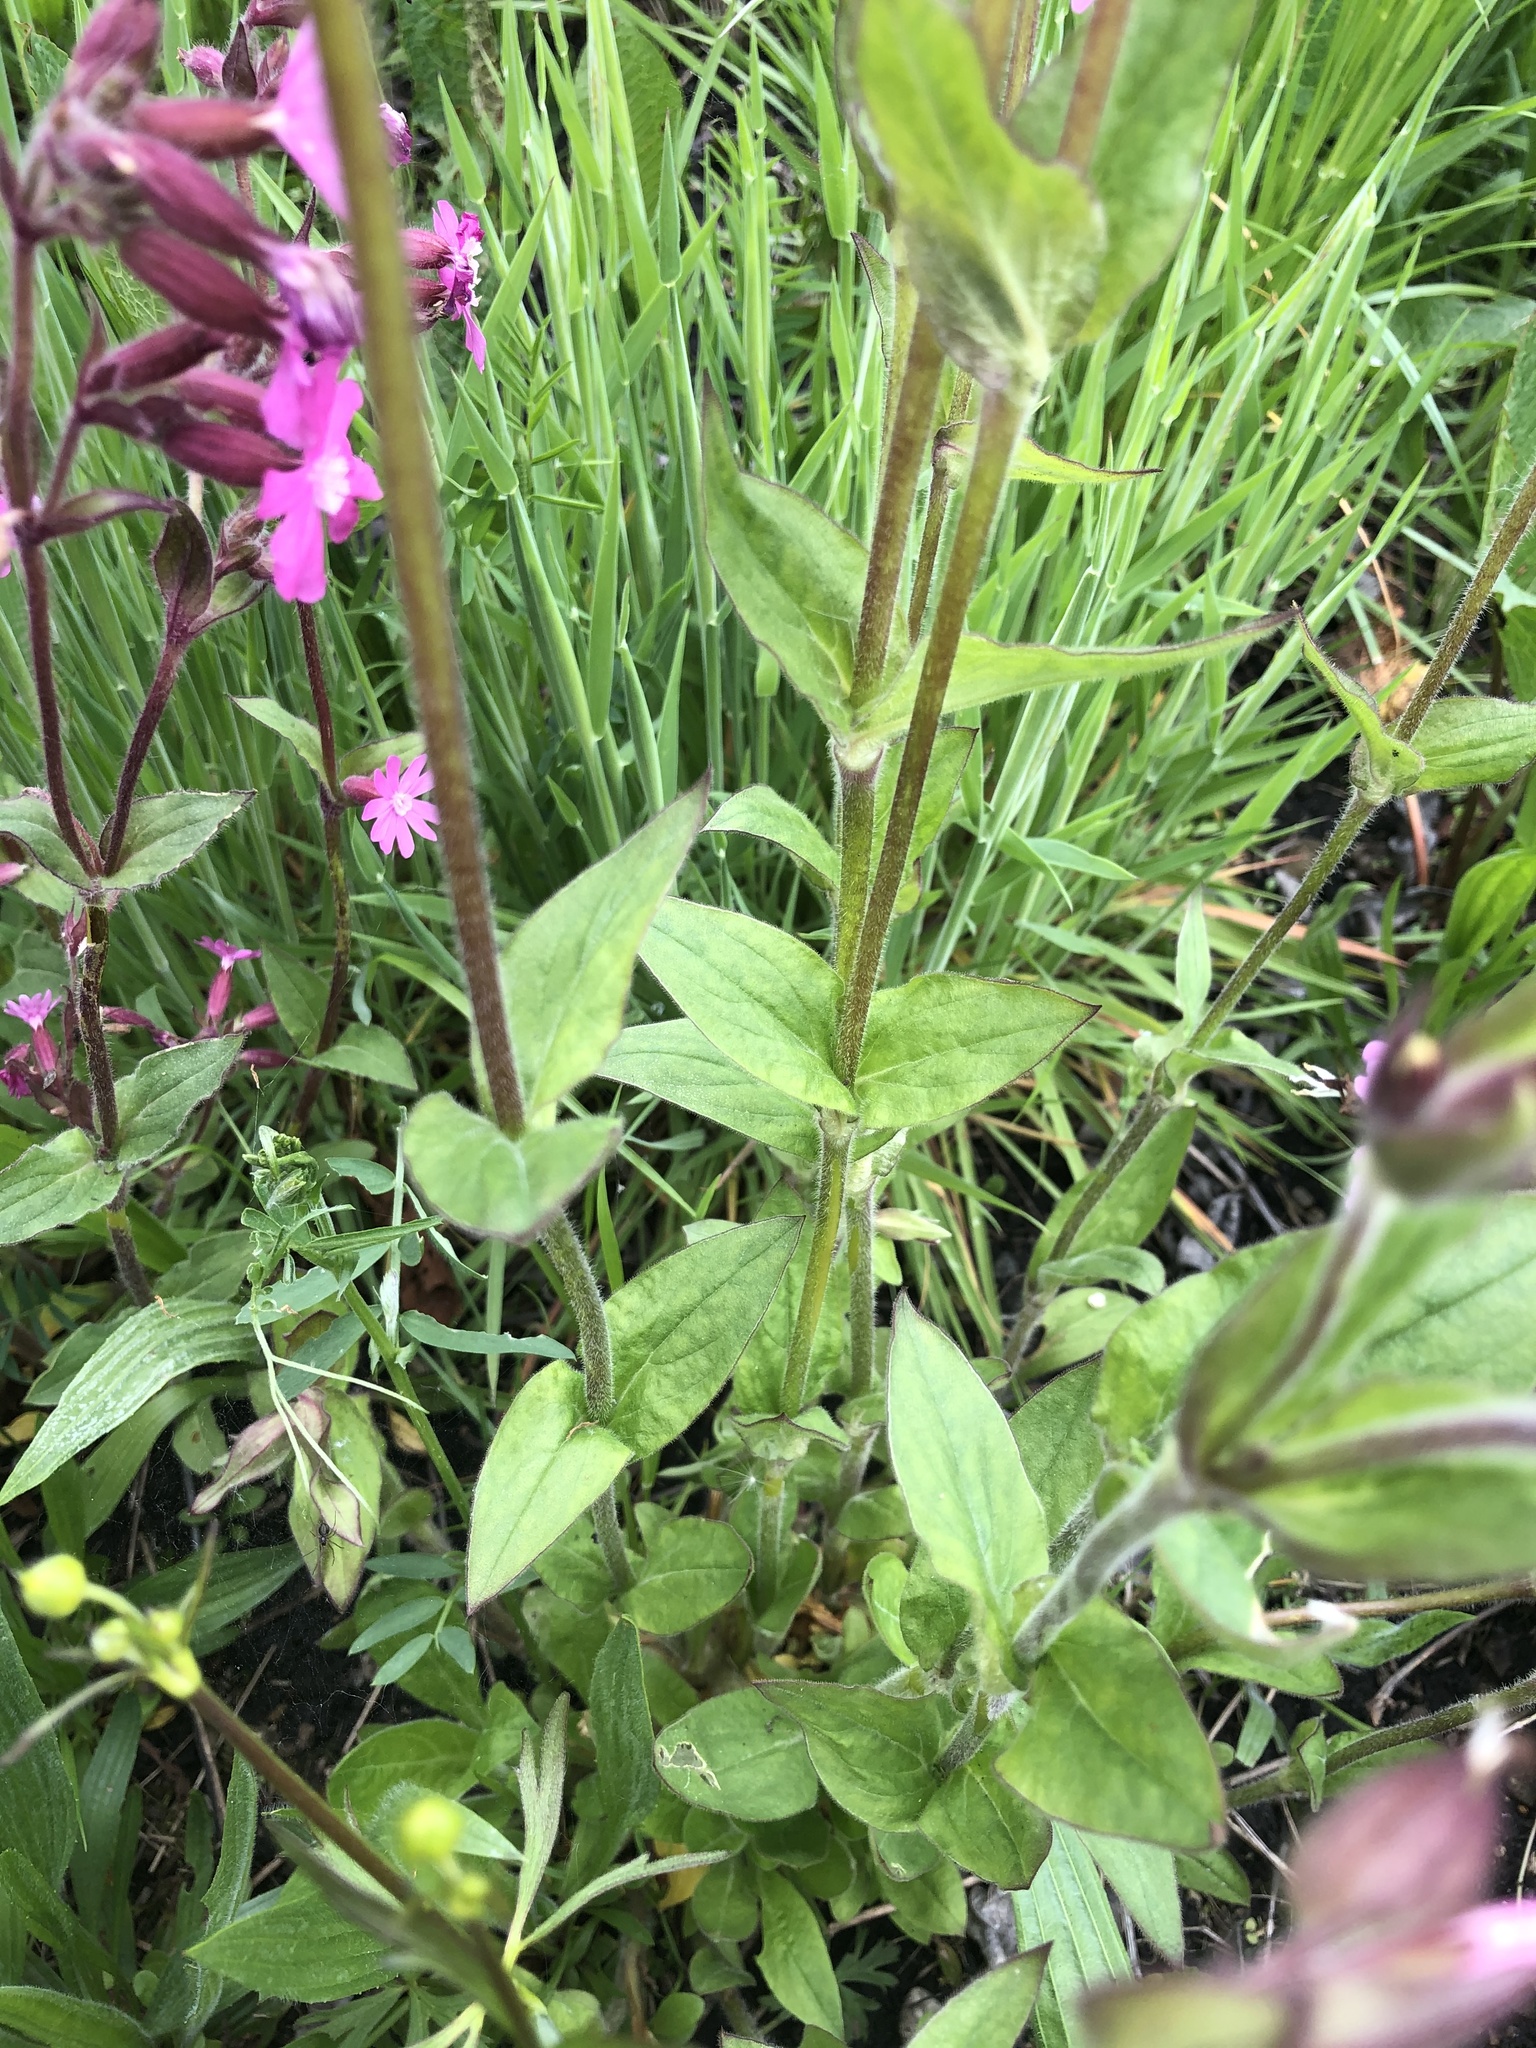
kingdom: Plantae
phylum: Tracheophyta
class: Magnoliopsida
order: Caryophyllales
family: Caryophyllaceae
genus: Silene
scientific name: Silene dioica
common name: Red campion
